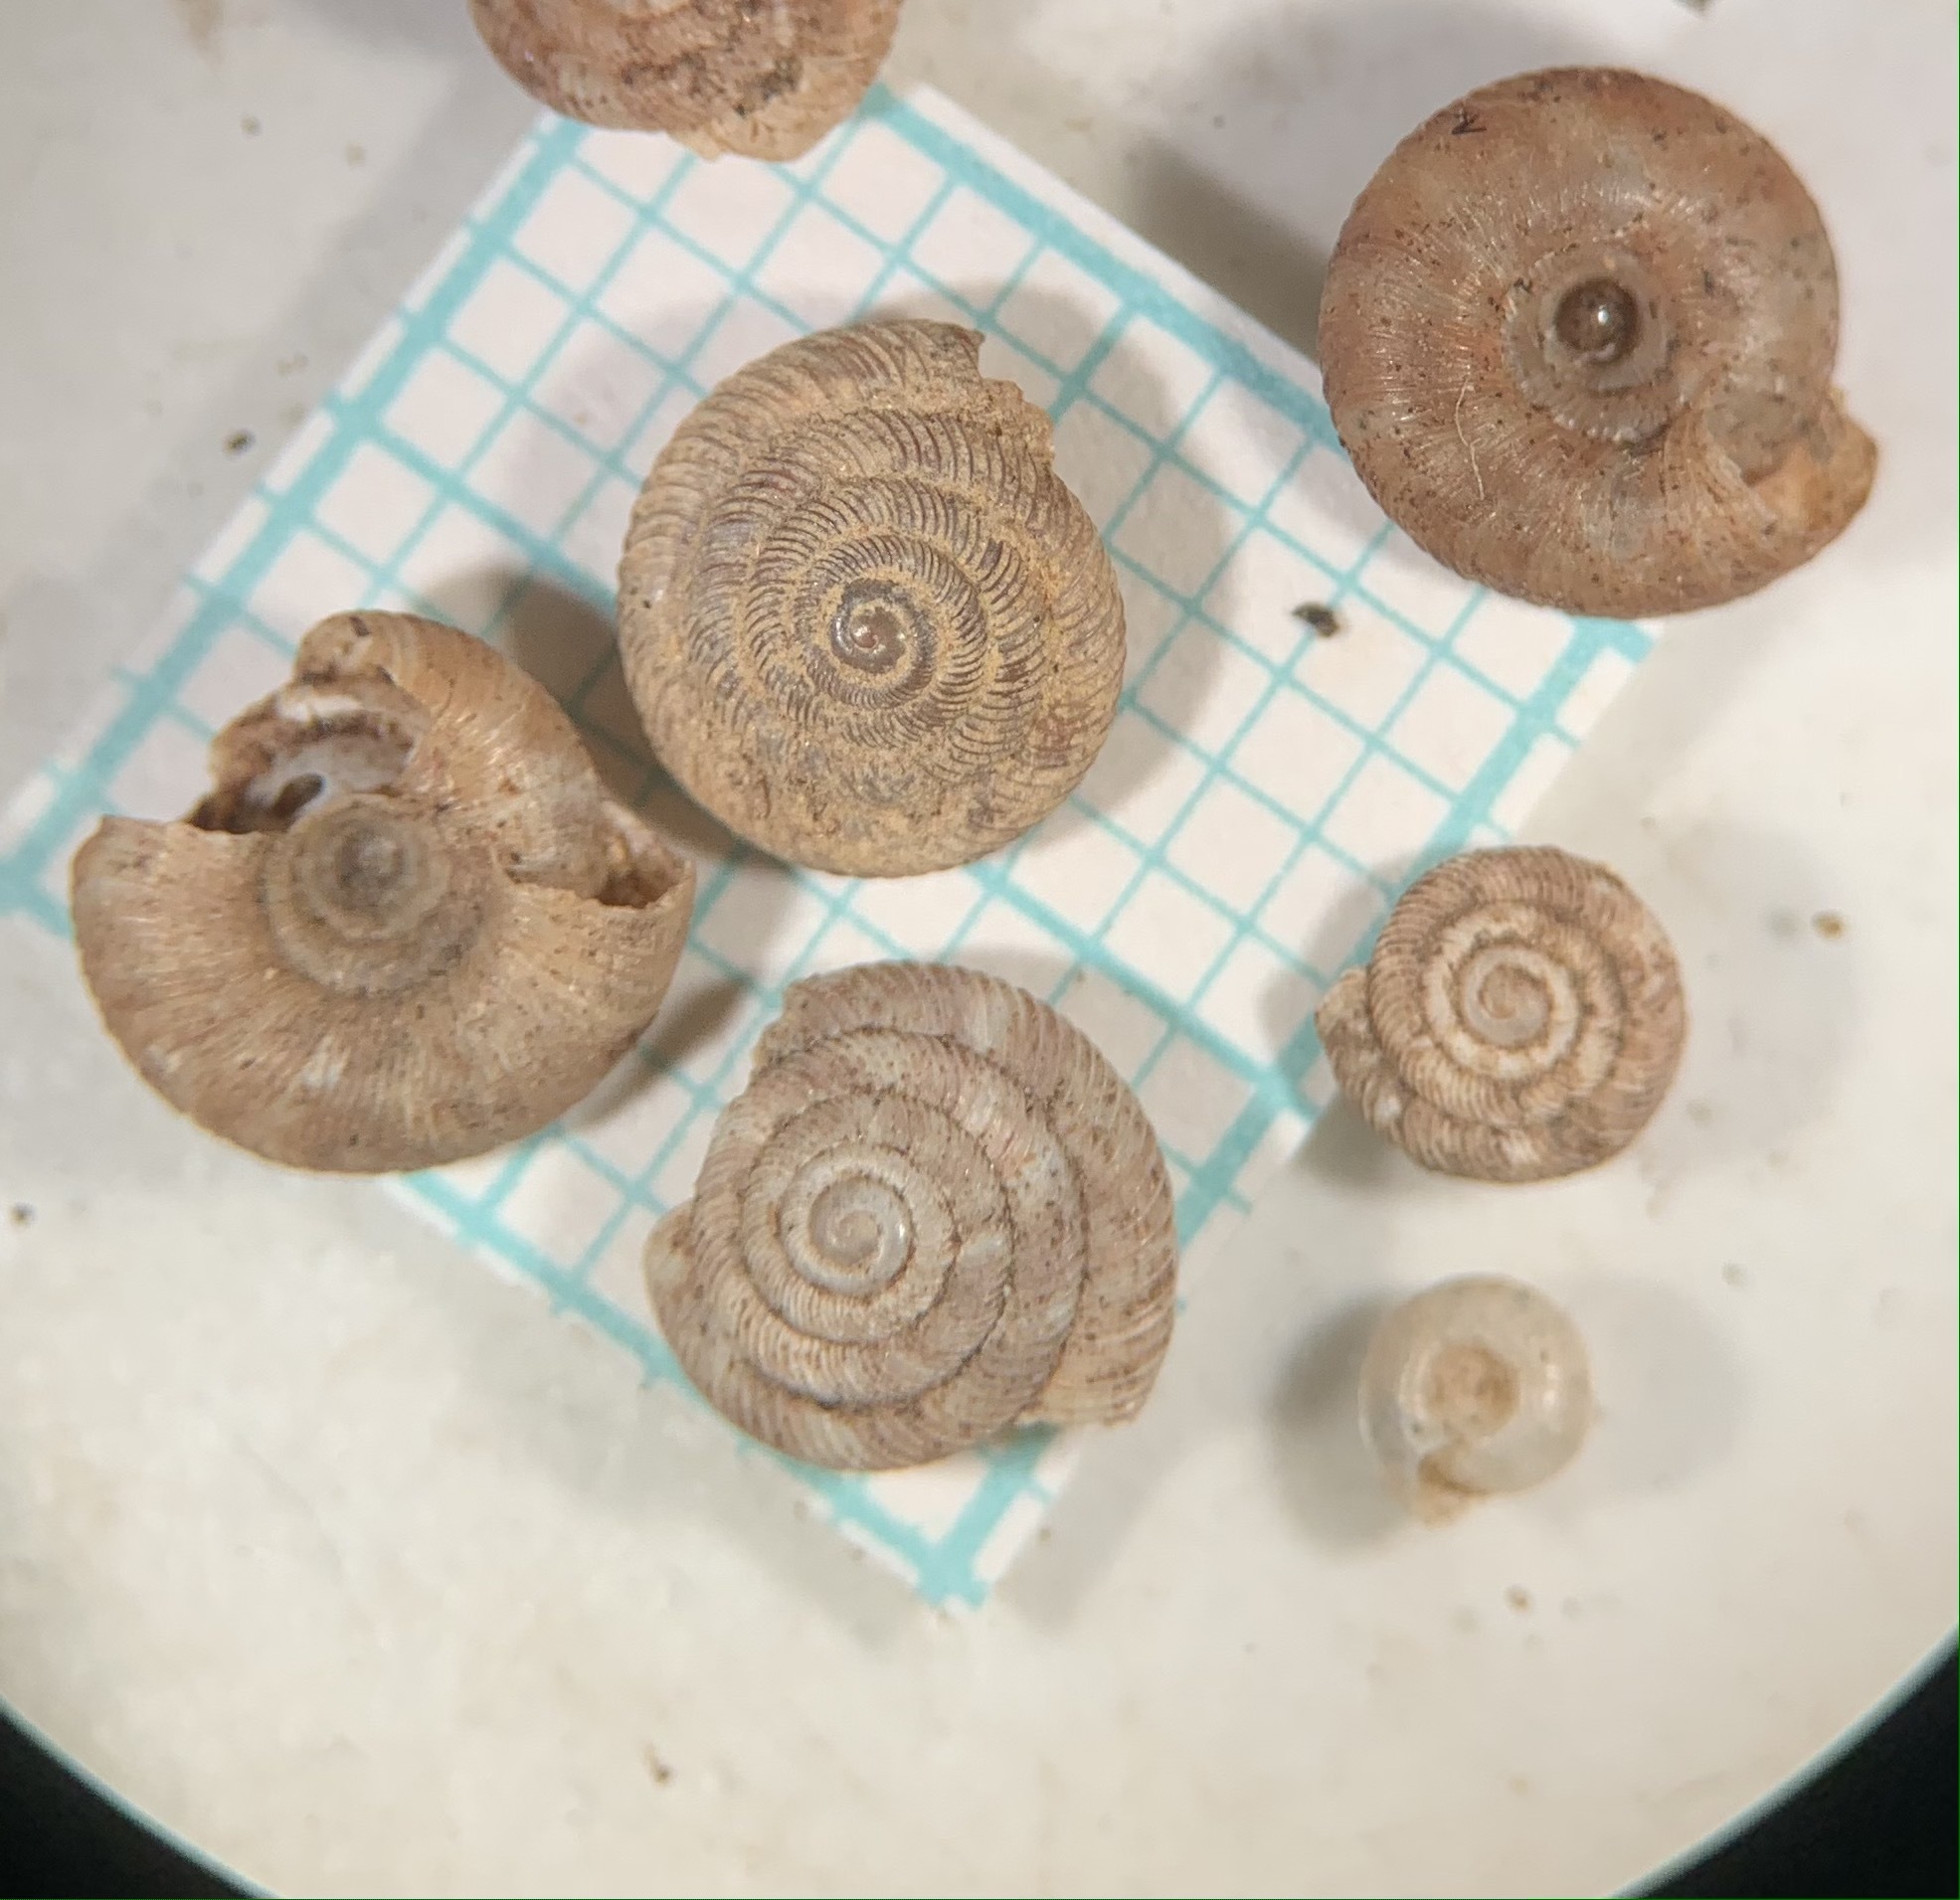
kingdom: Animalia
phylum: Mollusca
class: Gastropoda
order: Stylommatophora
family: Discidae
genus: Discus
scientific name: Discus rotundatus
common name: Rounded snail
